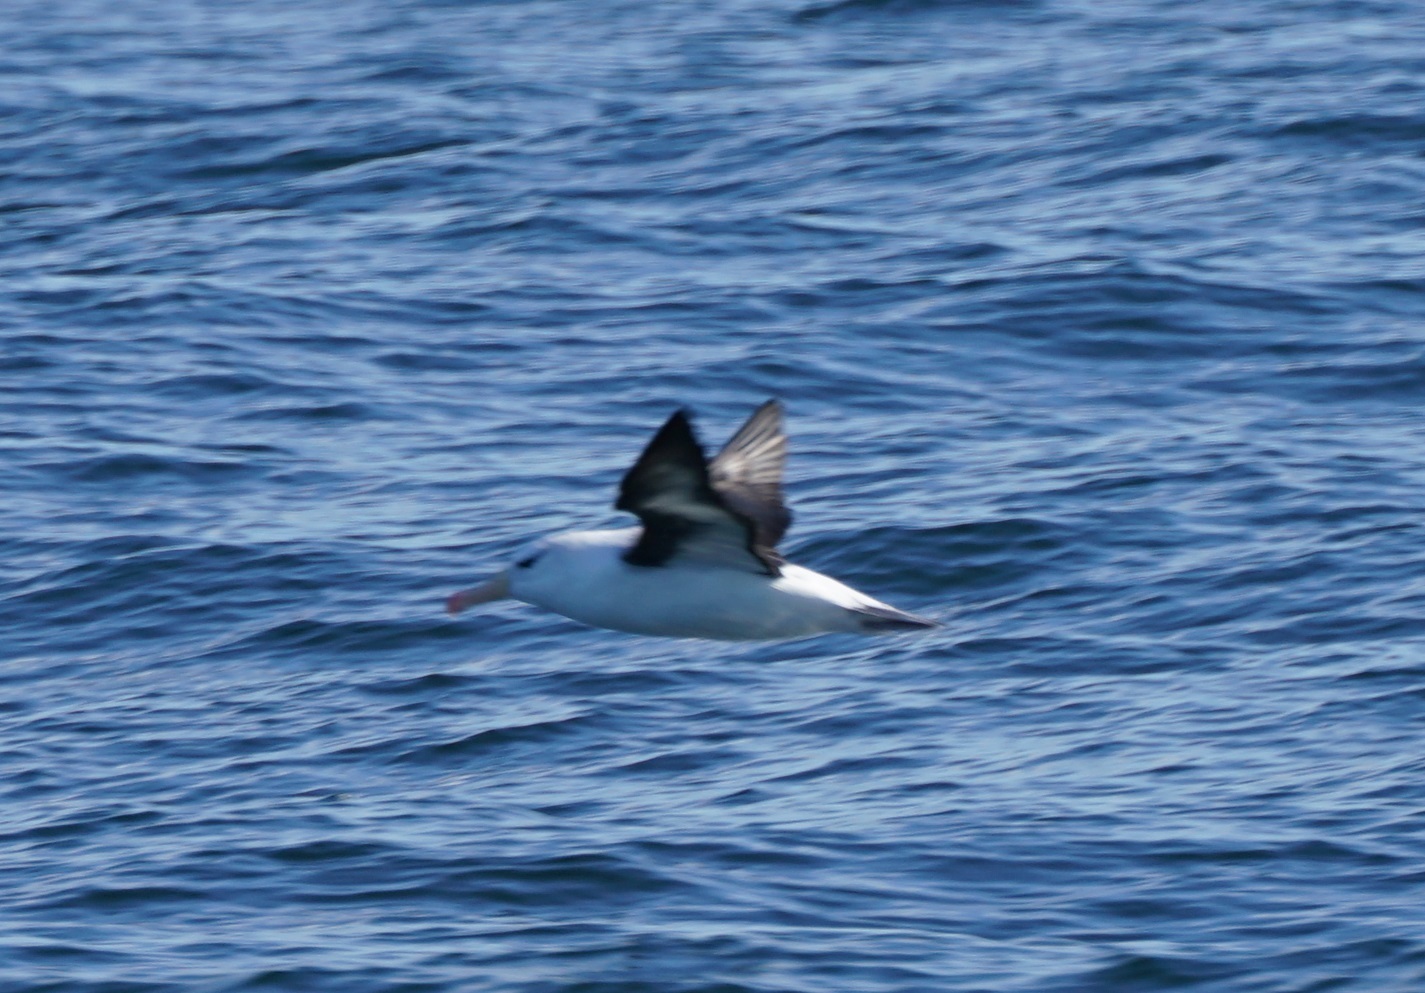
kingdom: Animalia
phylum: Chordata
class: Aves
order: Procellariiformes
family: Diomedeidae
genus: Thalassarche
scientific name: Thalassarche melanophris
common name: Black-browed albatross
